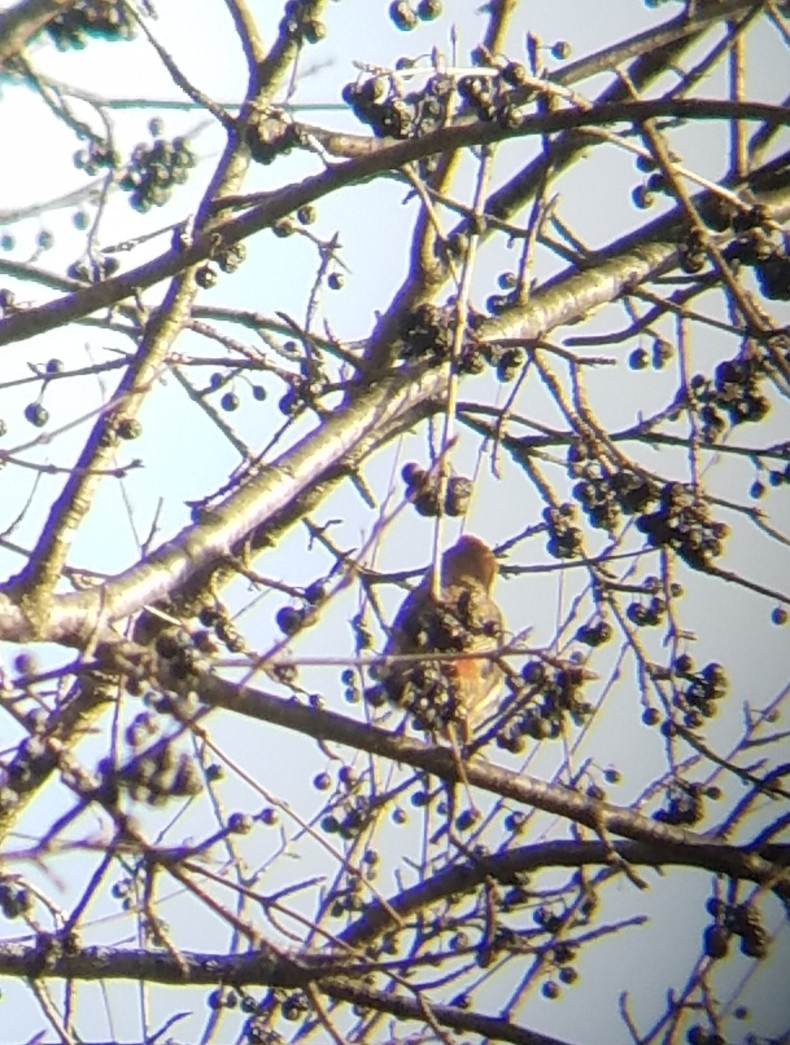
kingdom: Animalia
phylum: Chordata
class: Aves
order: Passeriformes
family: Fringillidae
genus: Haemorhous
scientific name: Haemorhous mexicanus
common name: House finch
